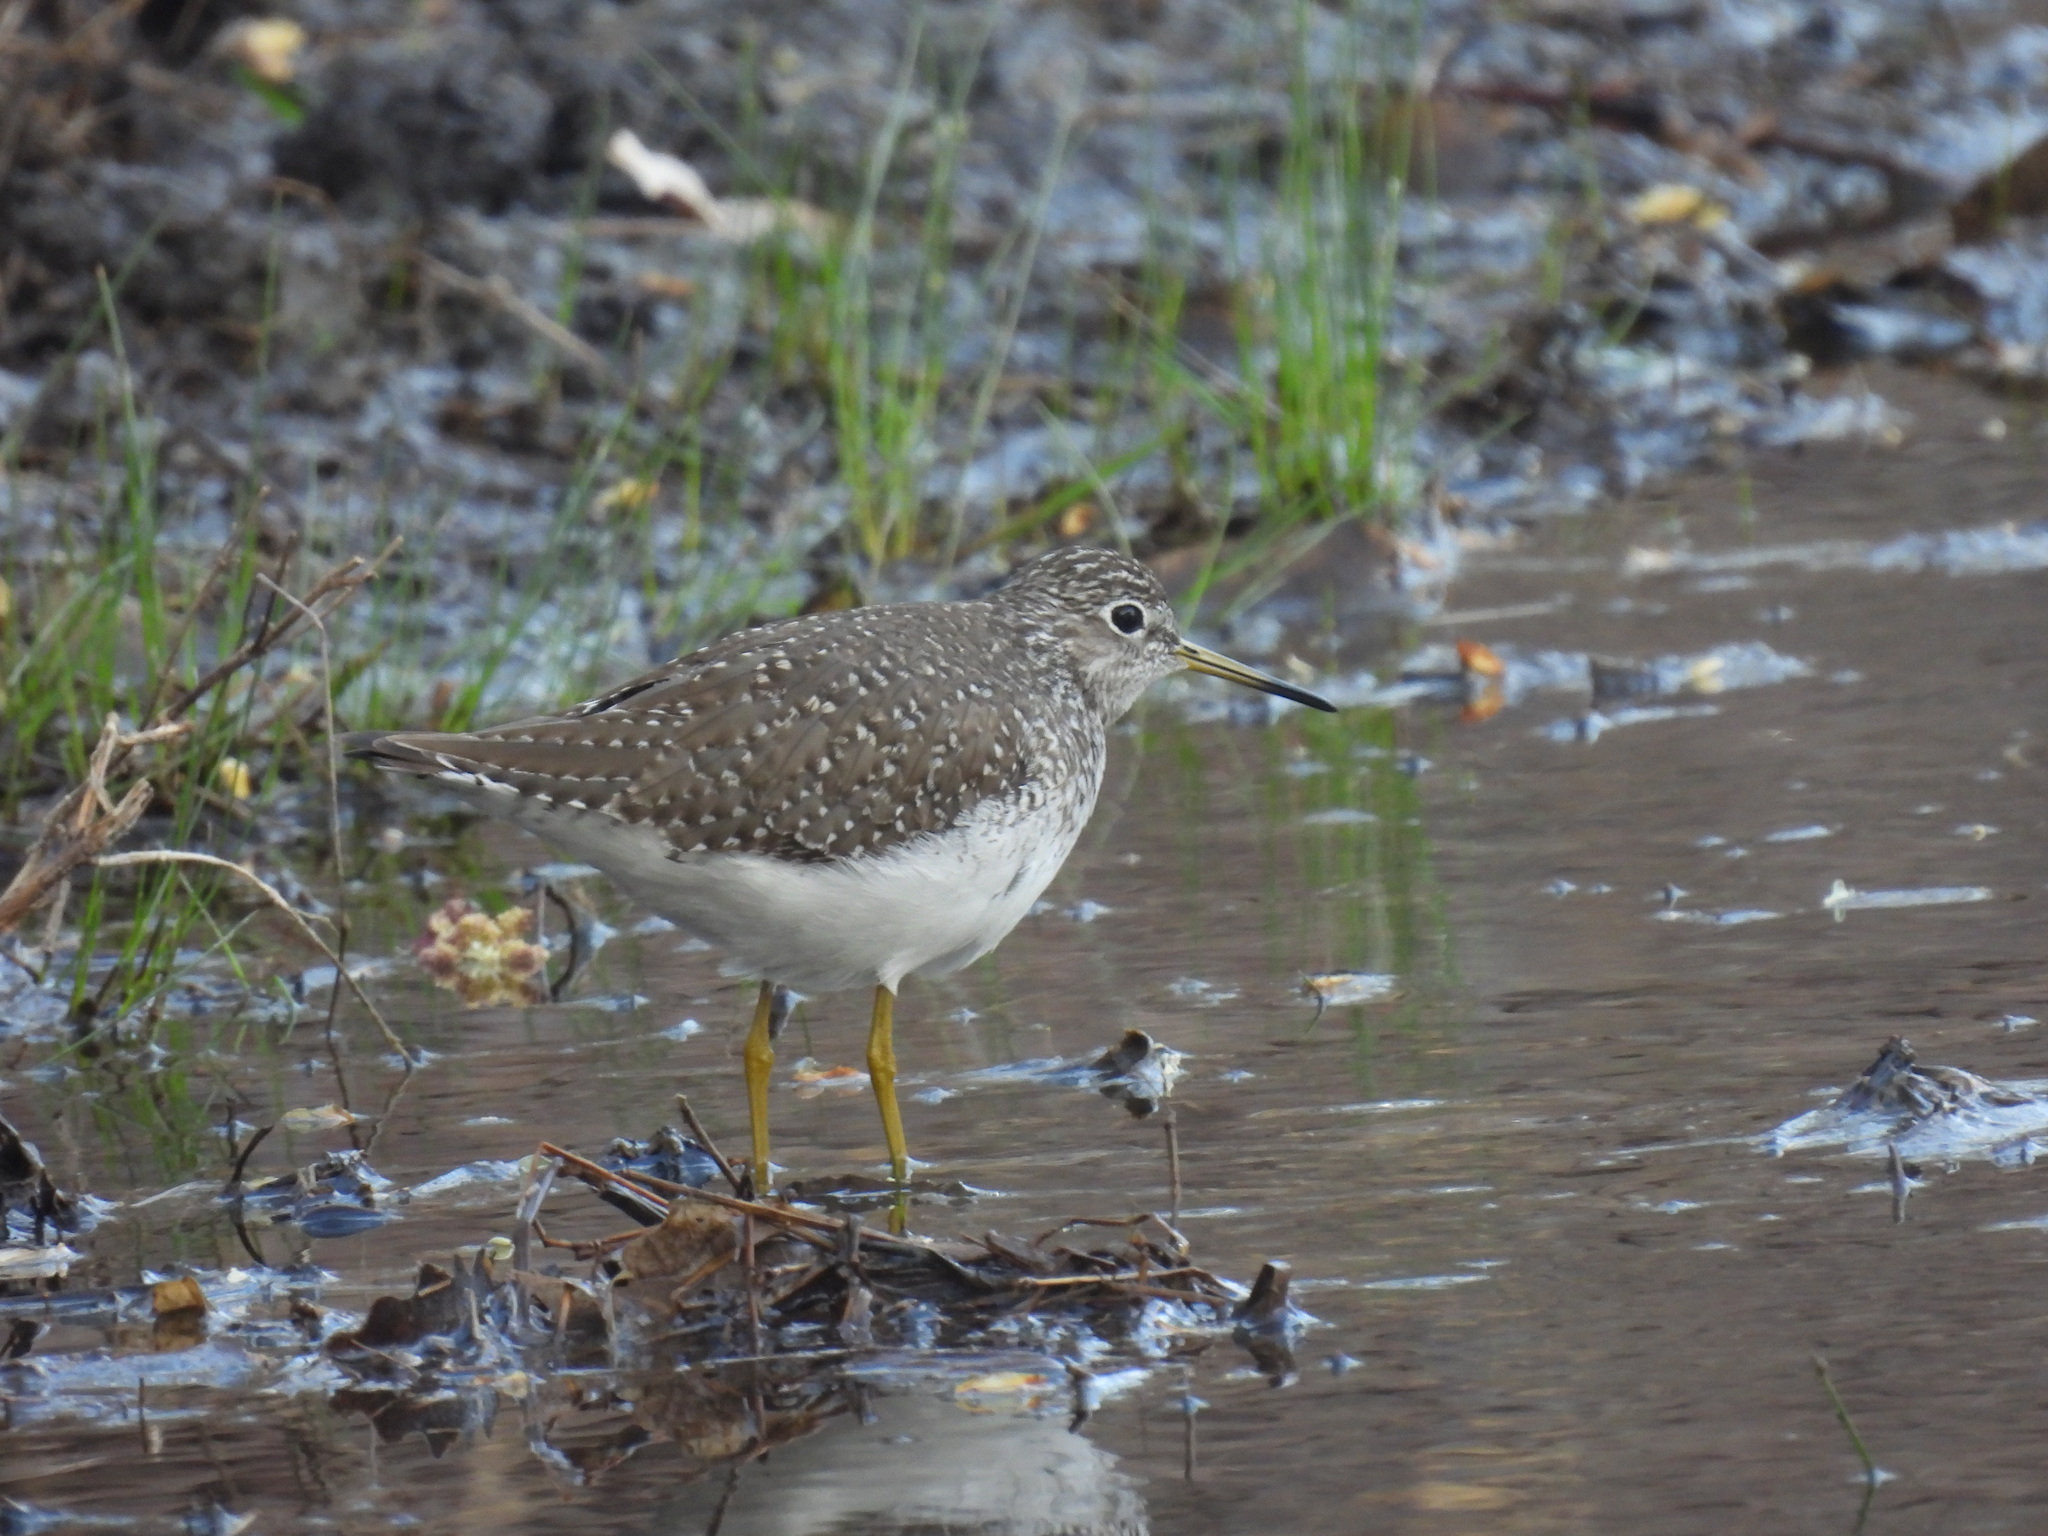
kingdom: Animalia
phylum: Chordata
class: Aves
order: Charadriiformes
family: Scolopacidae
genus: Tringa
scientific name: Tringa solitaria
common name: Solitary sandpiper
